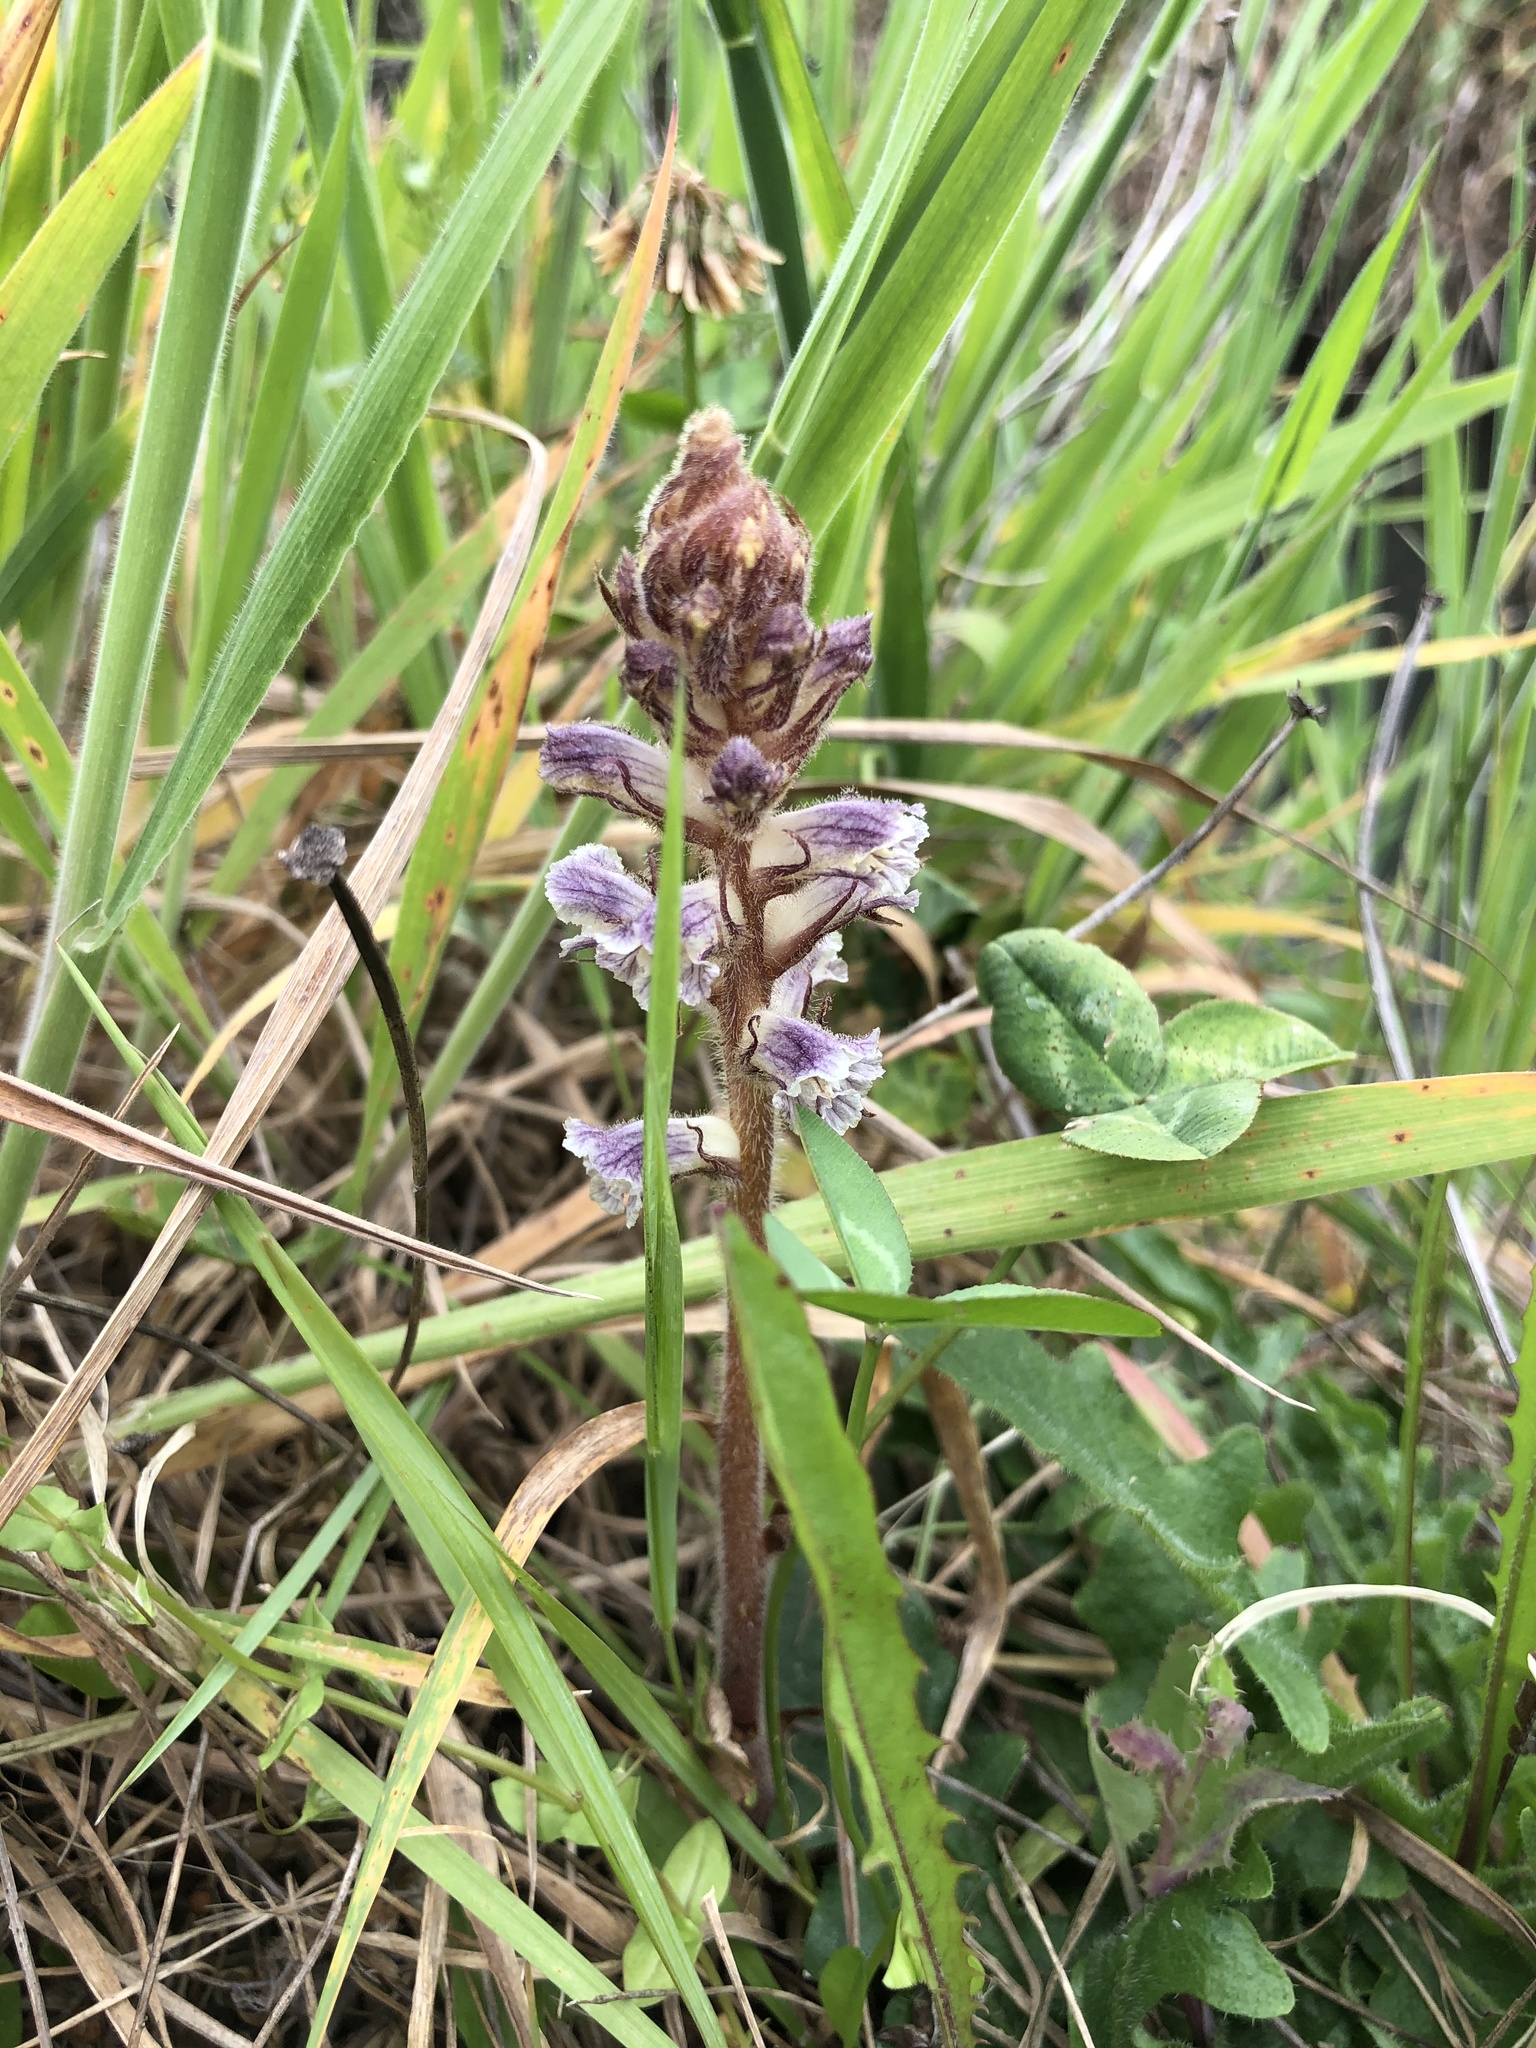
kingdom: Plantae
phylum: Tracheophyta
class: Magnoliopsida
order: Lamiales
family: Orobanchaceae
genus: Orobanche
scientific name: Orobanche minor
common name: Common broomrape
